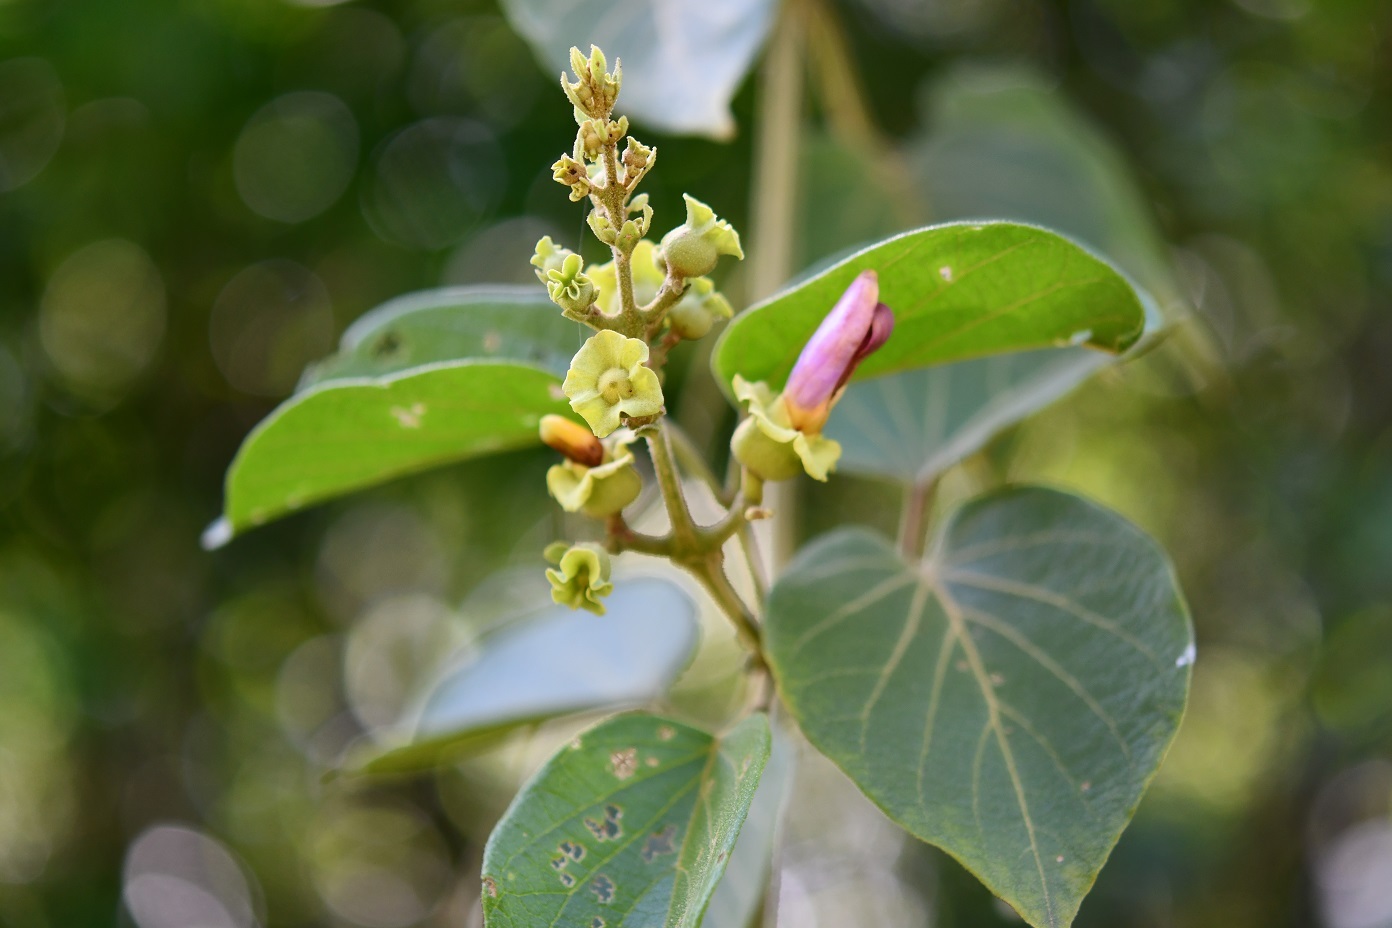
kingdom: Plantae
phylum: Tracheophyta
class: Magnoliopsida
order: Lamiales
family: Bignoniaceae
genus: Amphilophium
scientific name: Amphilophium paniculatum
